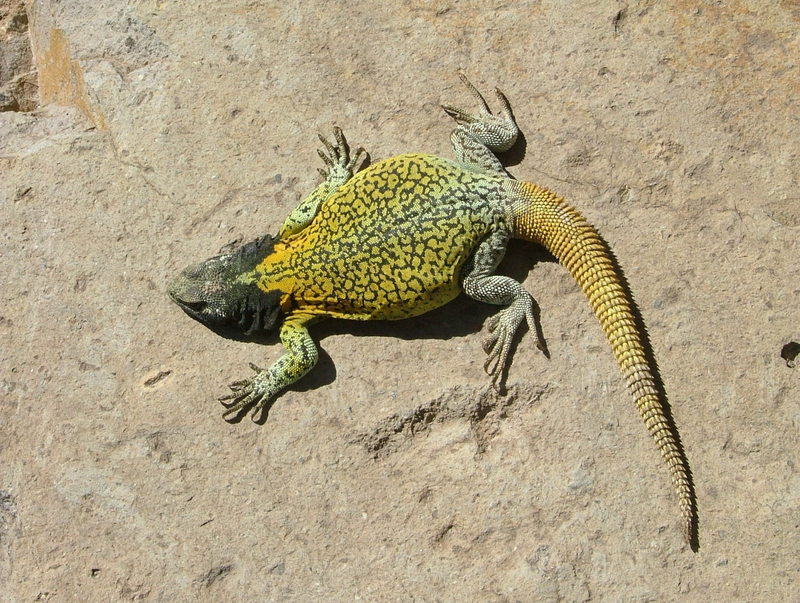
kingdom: Animalia
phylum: Chordata
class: Squamata
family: Liolaemidae
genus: Phymaturus
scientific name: Phymaturus verdugo
